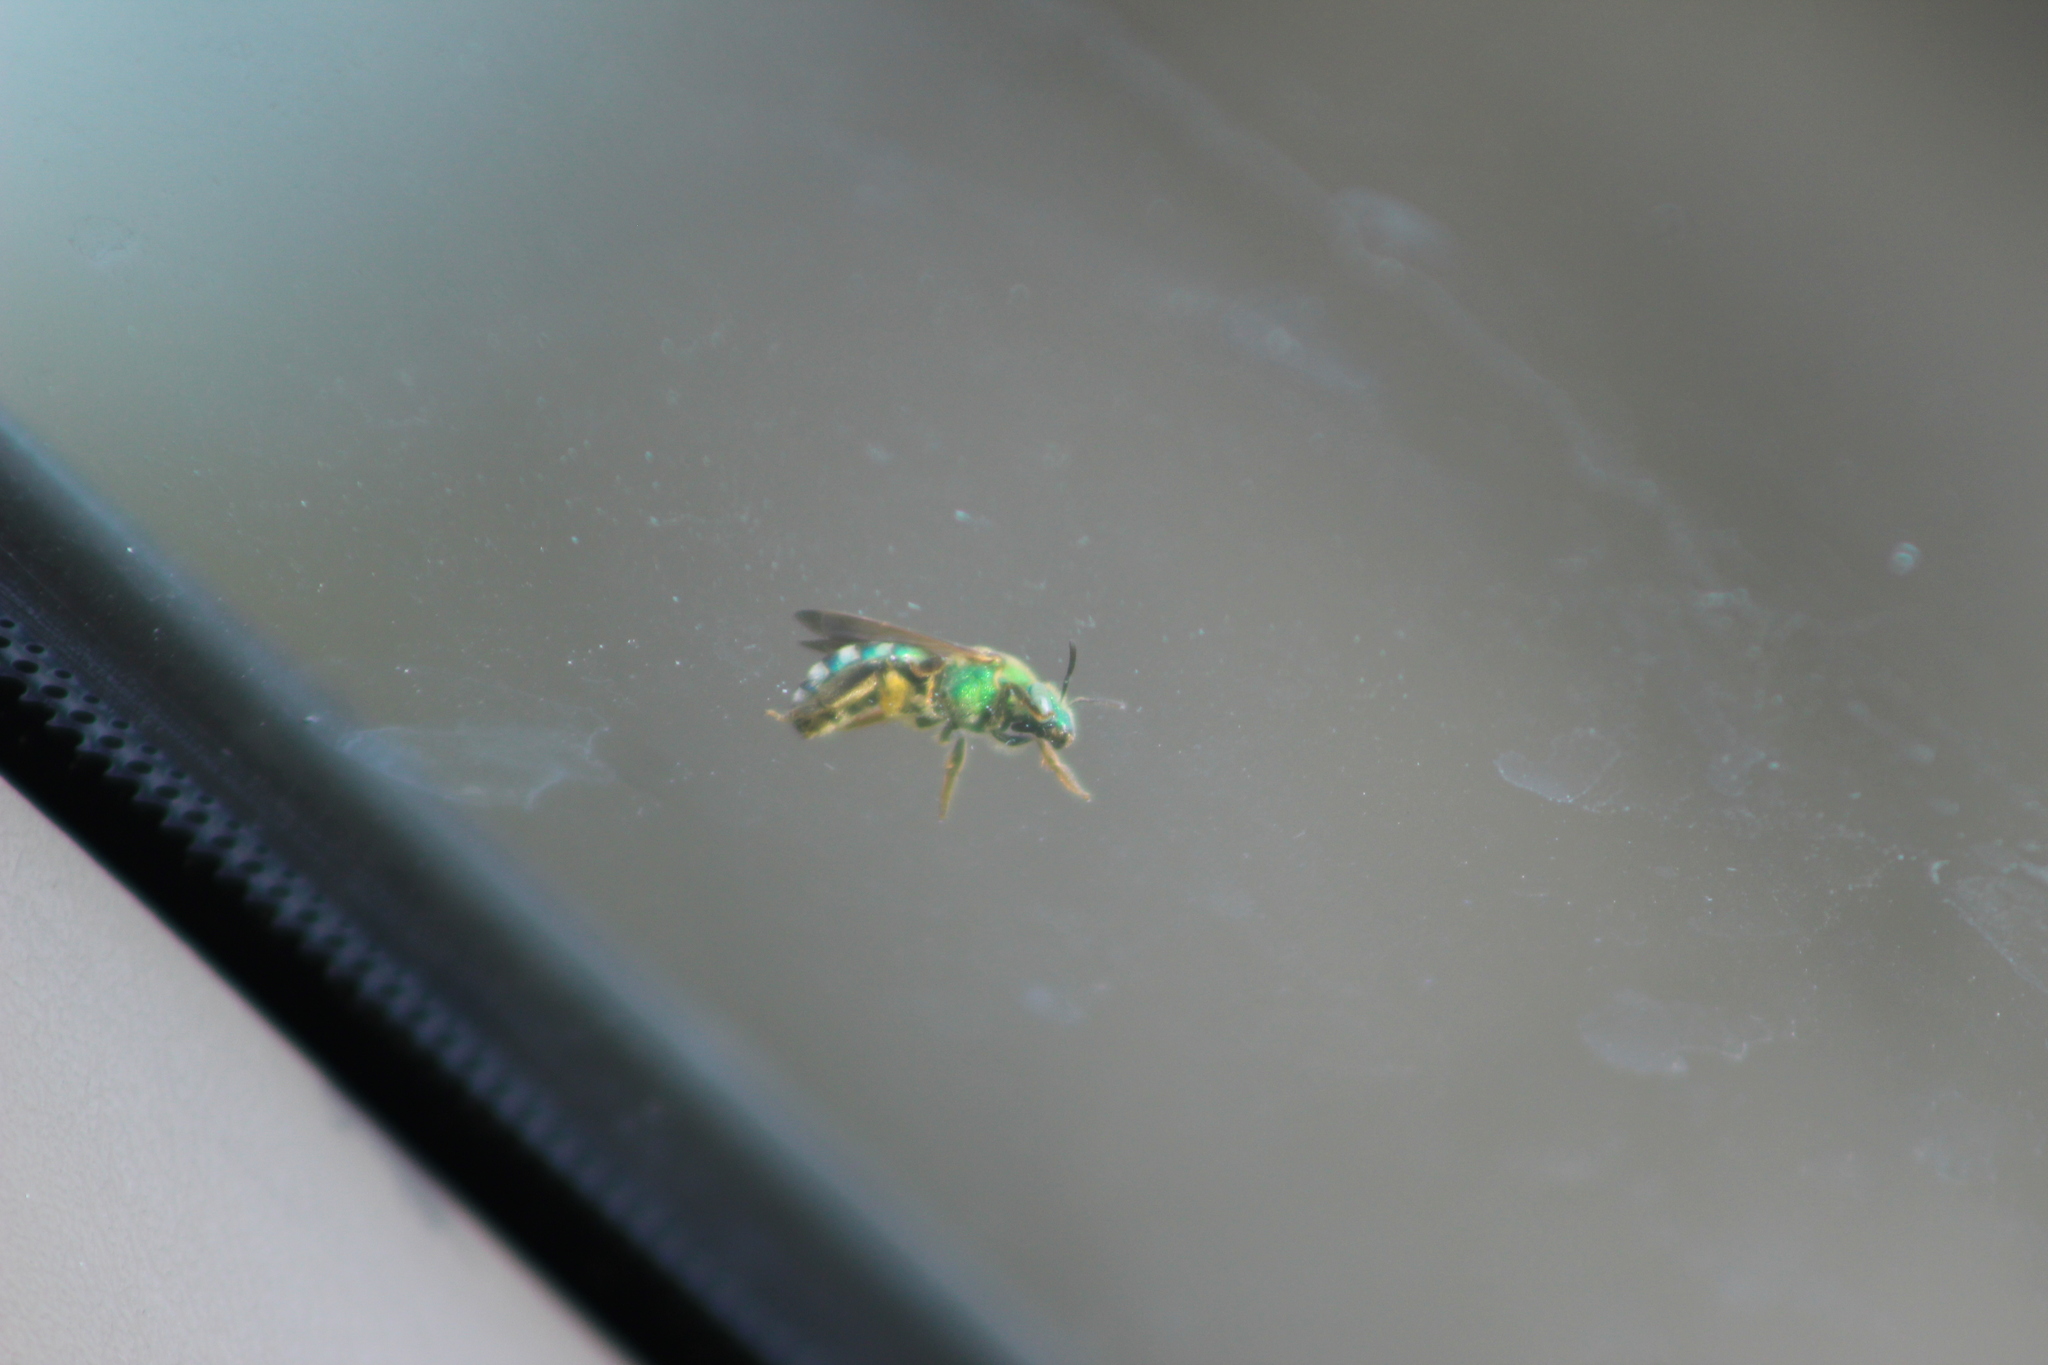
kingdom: Animalia
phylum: Arthropoda
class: Insecta
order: Hymenoptera
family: Halictidae
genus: Agapostemon
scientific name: Agapostemon splendens
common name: Brown-winged striped sweat bee
